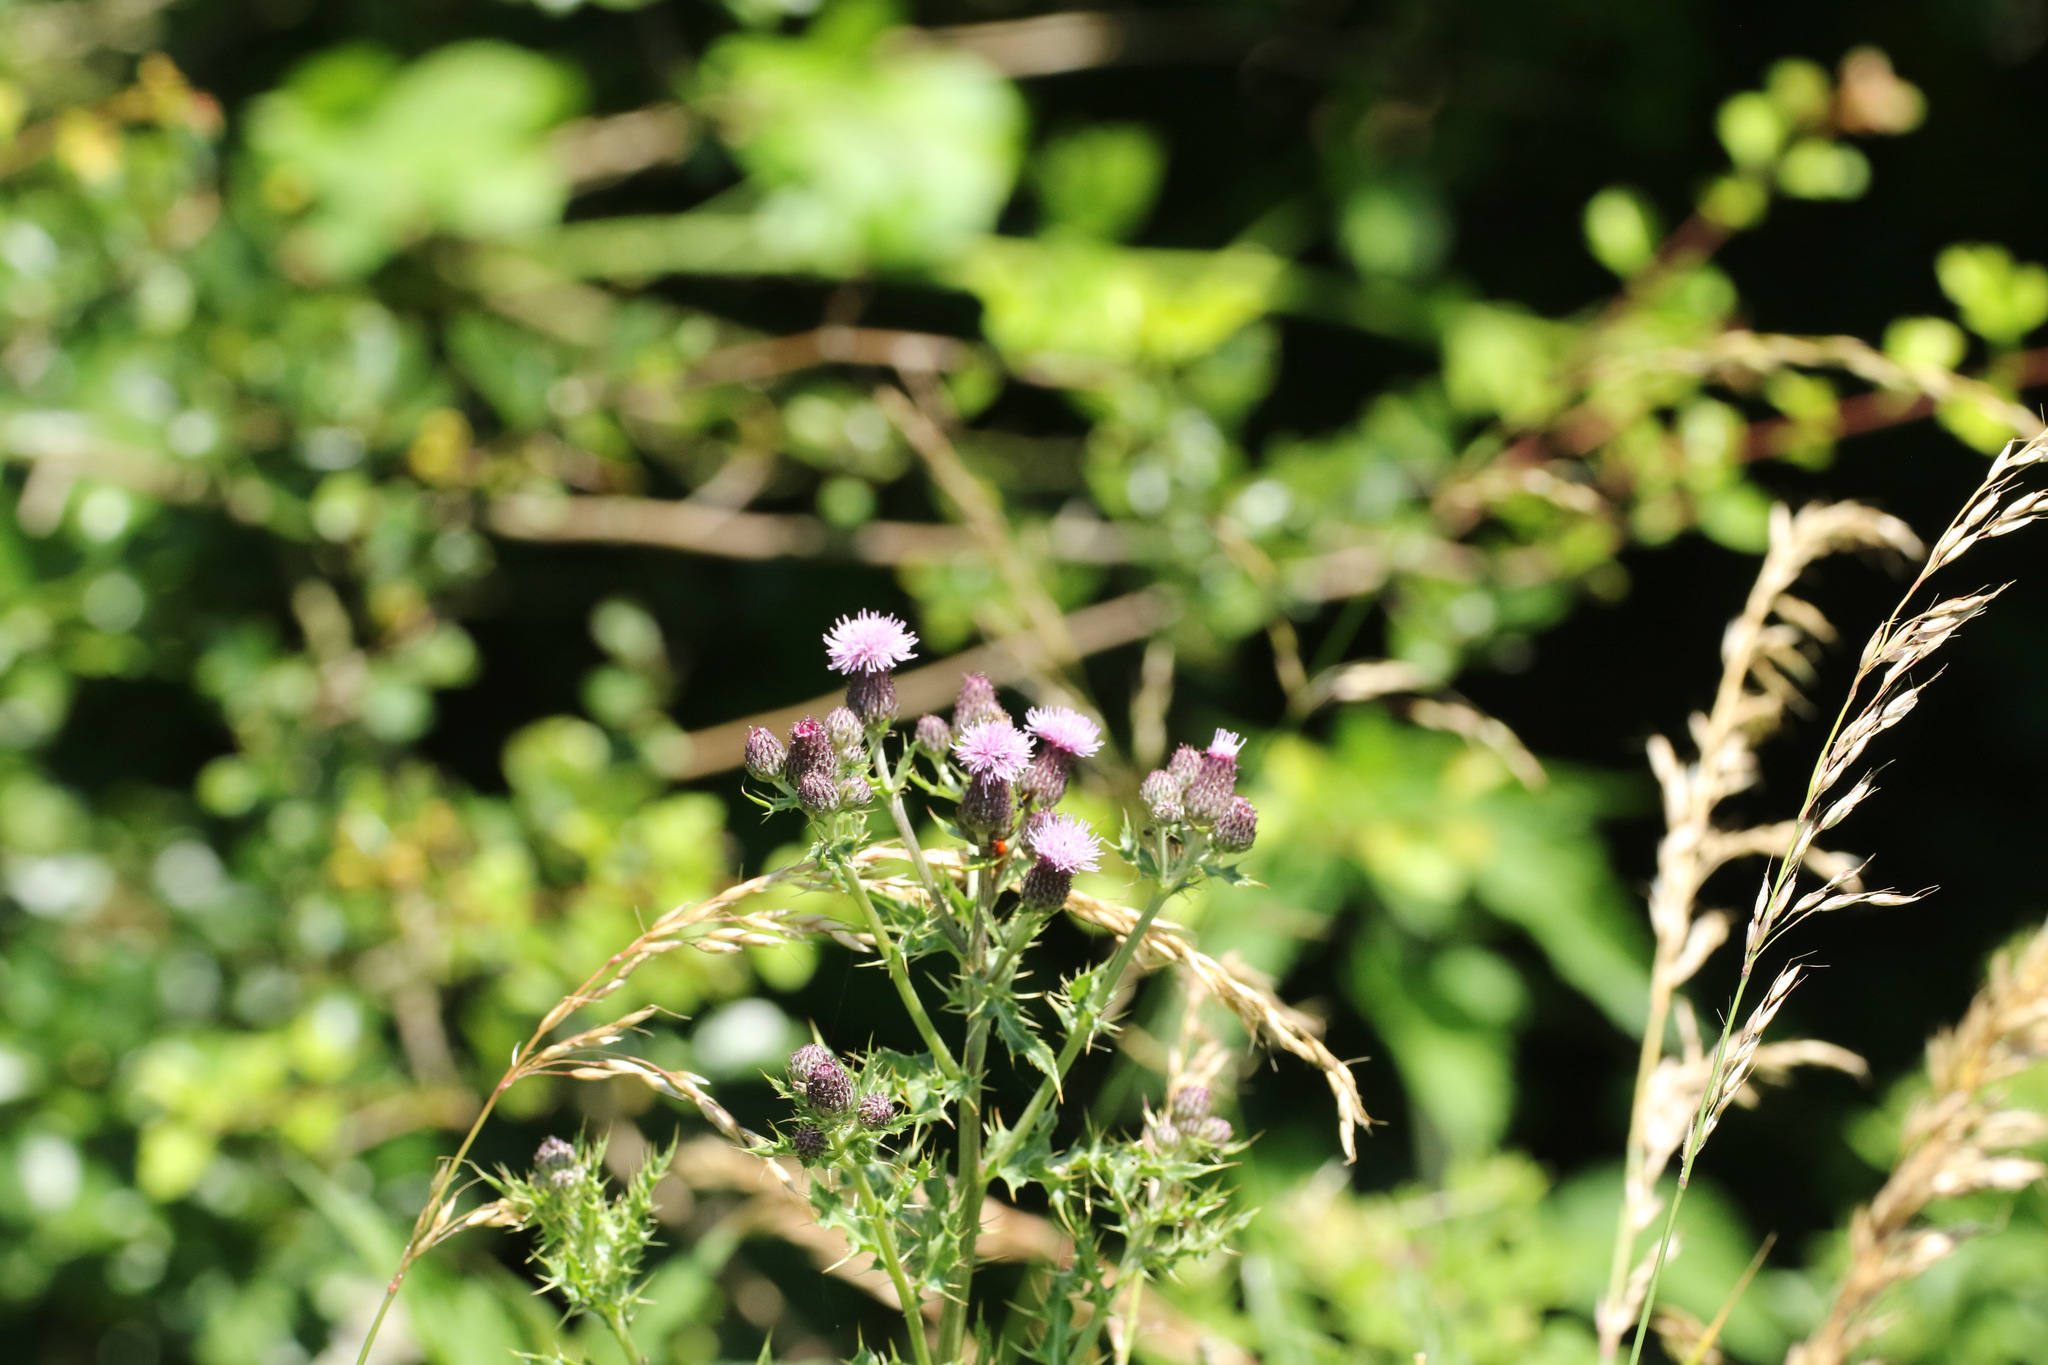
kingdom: Plantae
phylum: Tracheophyta
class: Magnoliopsida
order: Asterales
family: Asteraceae
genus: Cirsium
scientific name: Cirsium arvense
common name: Creeping thistle
